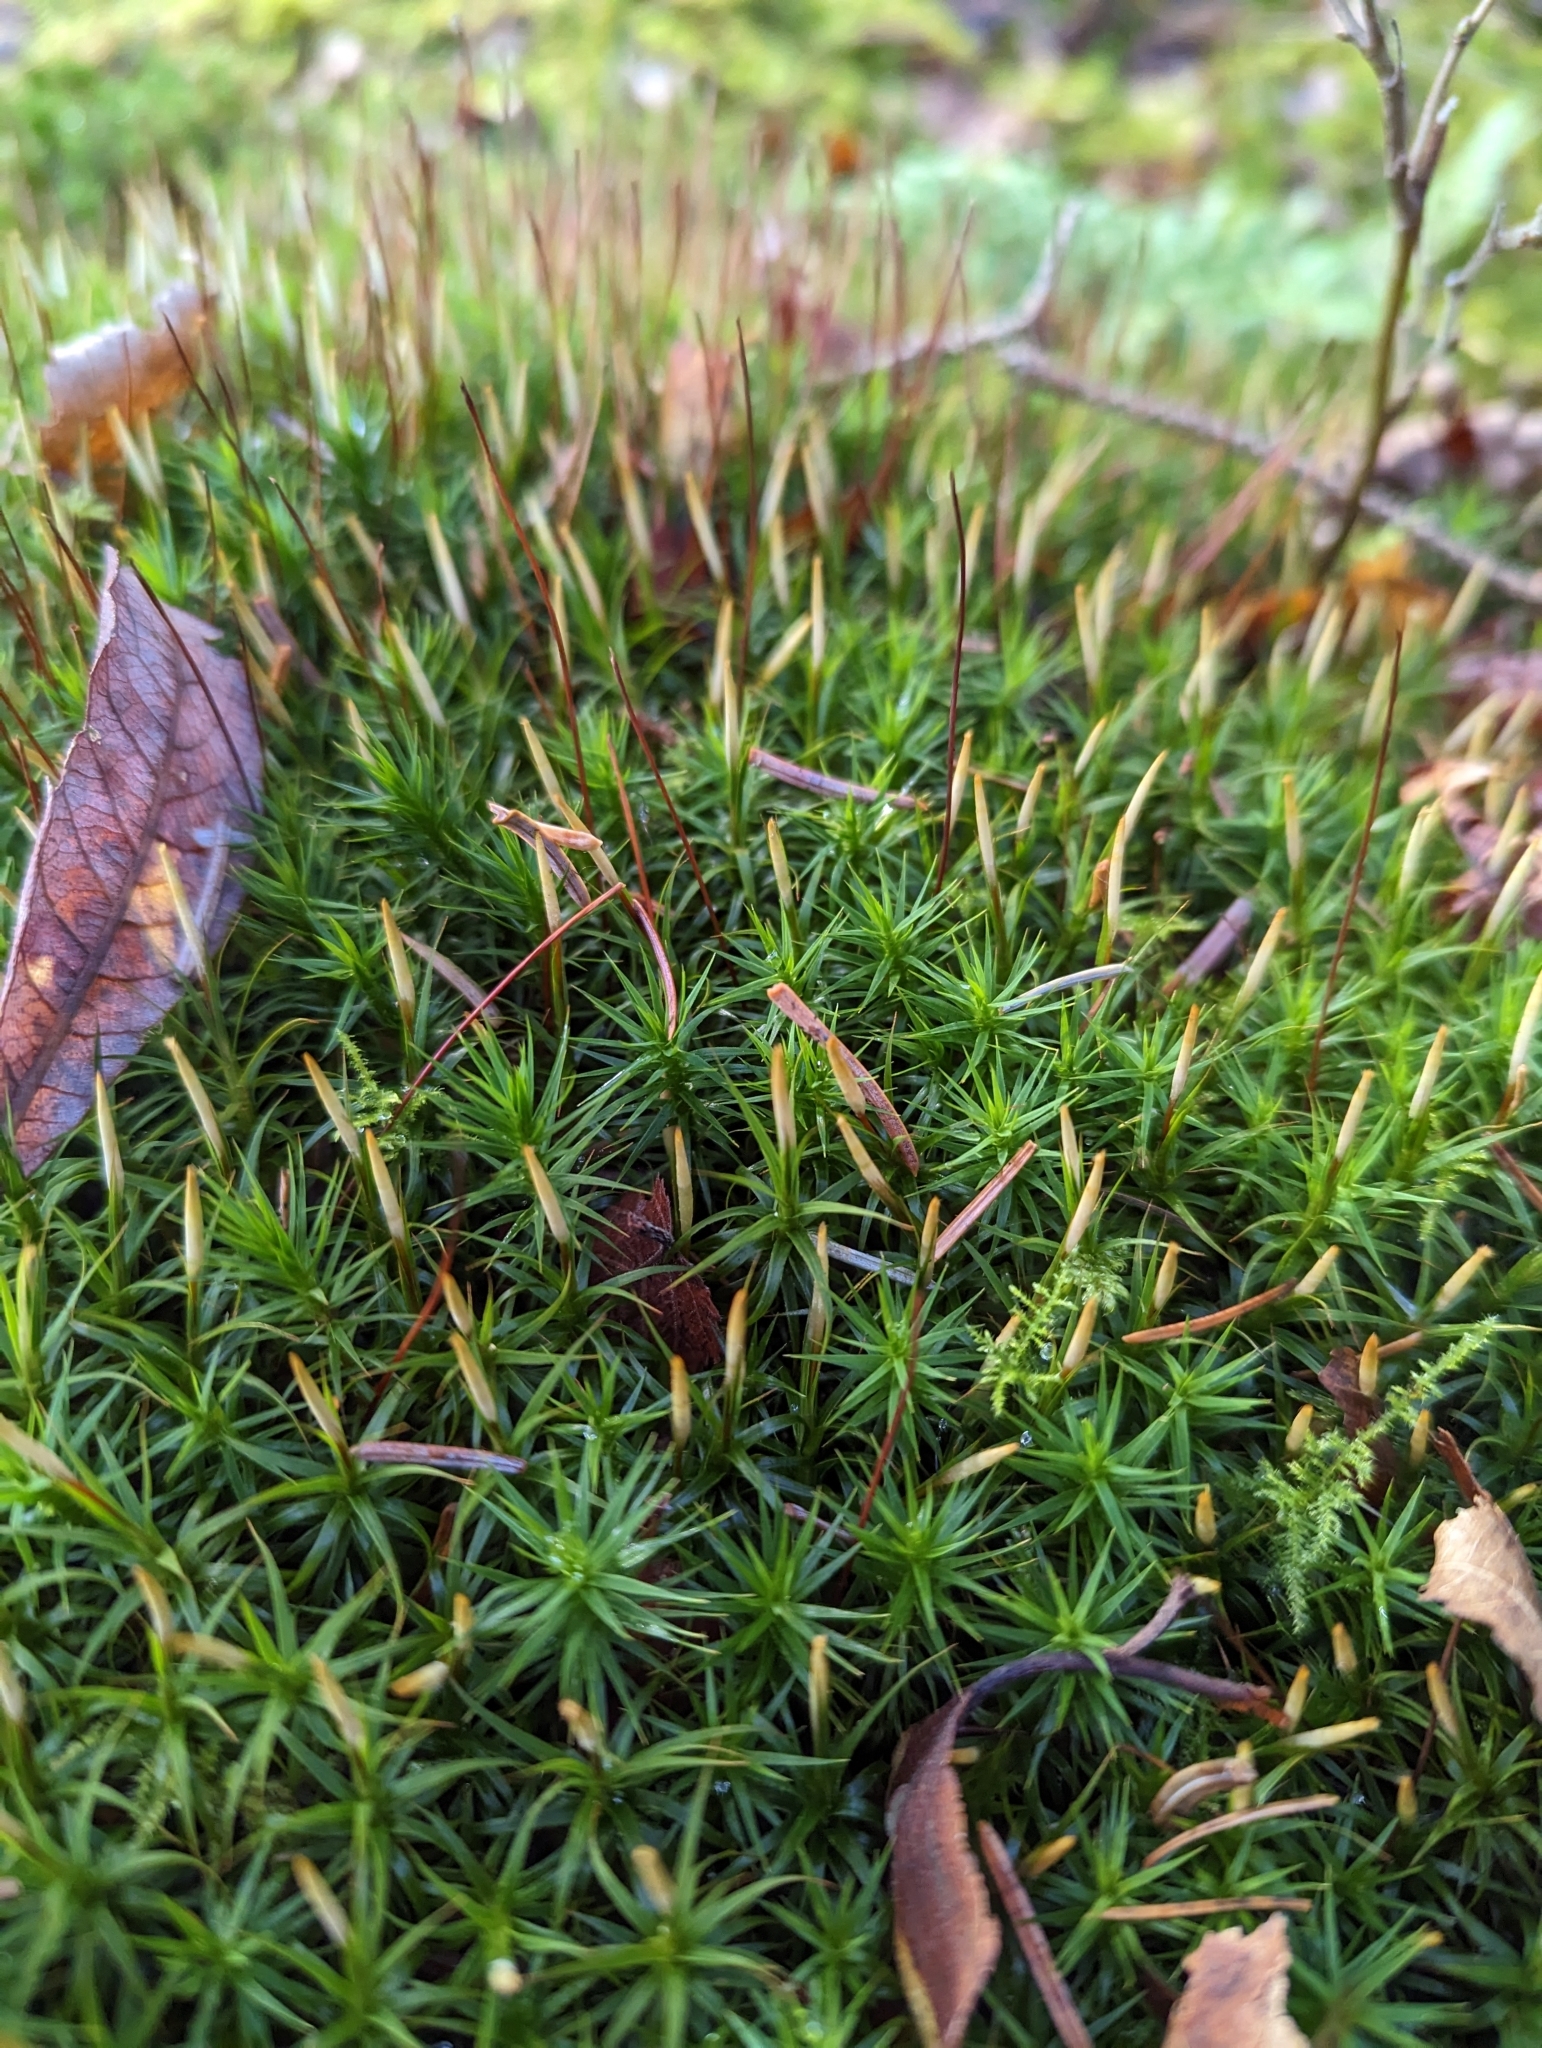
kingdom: Plantae
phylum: Bryophyta
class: Polytrichopsida
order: Polytrichales
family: Polytrichaceae
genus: Polytrichum
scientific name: Polytrichum formosum
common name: Bank haircap moss
